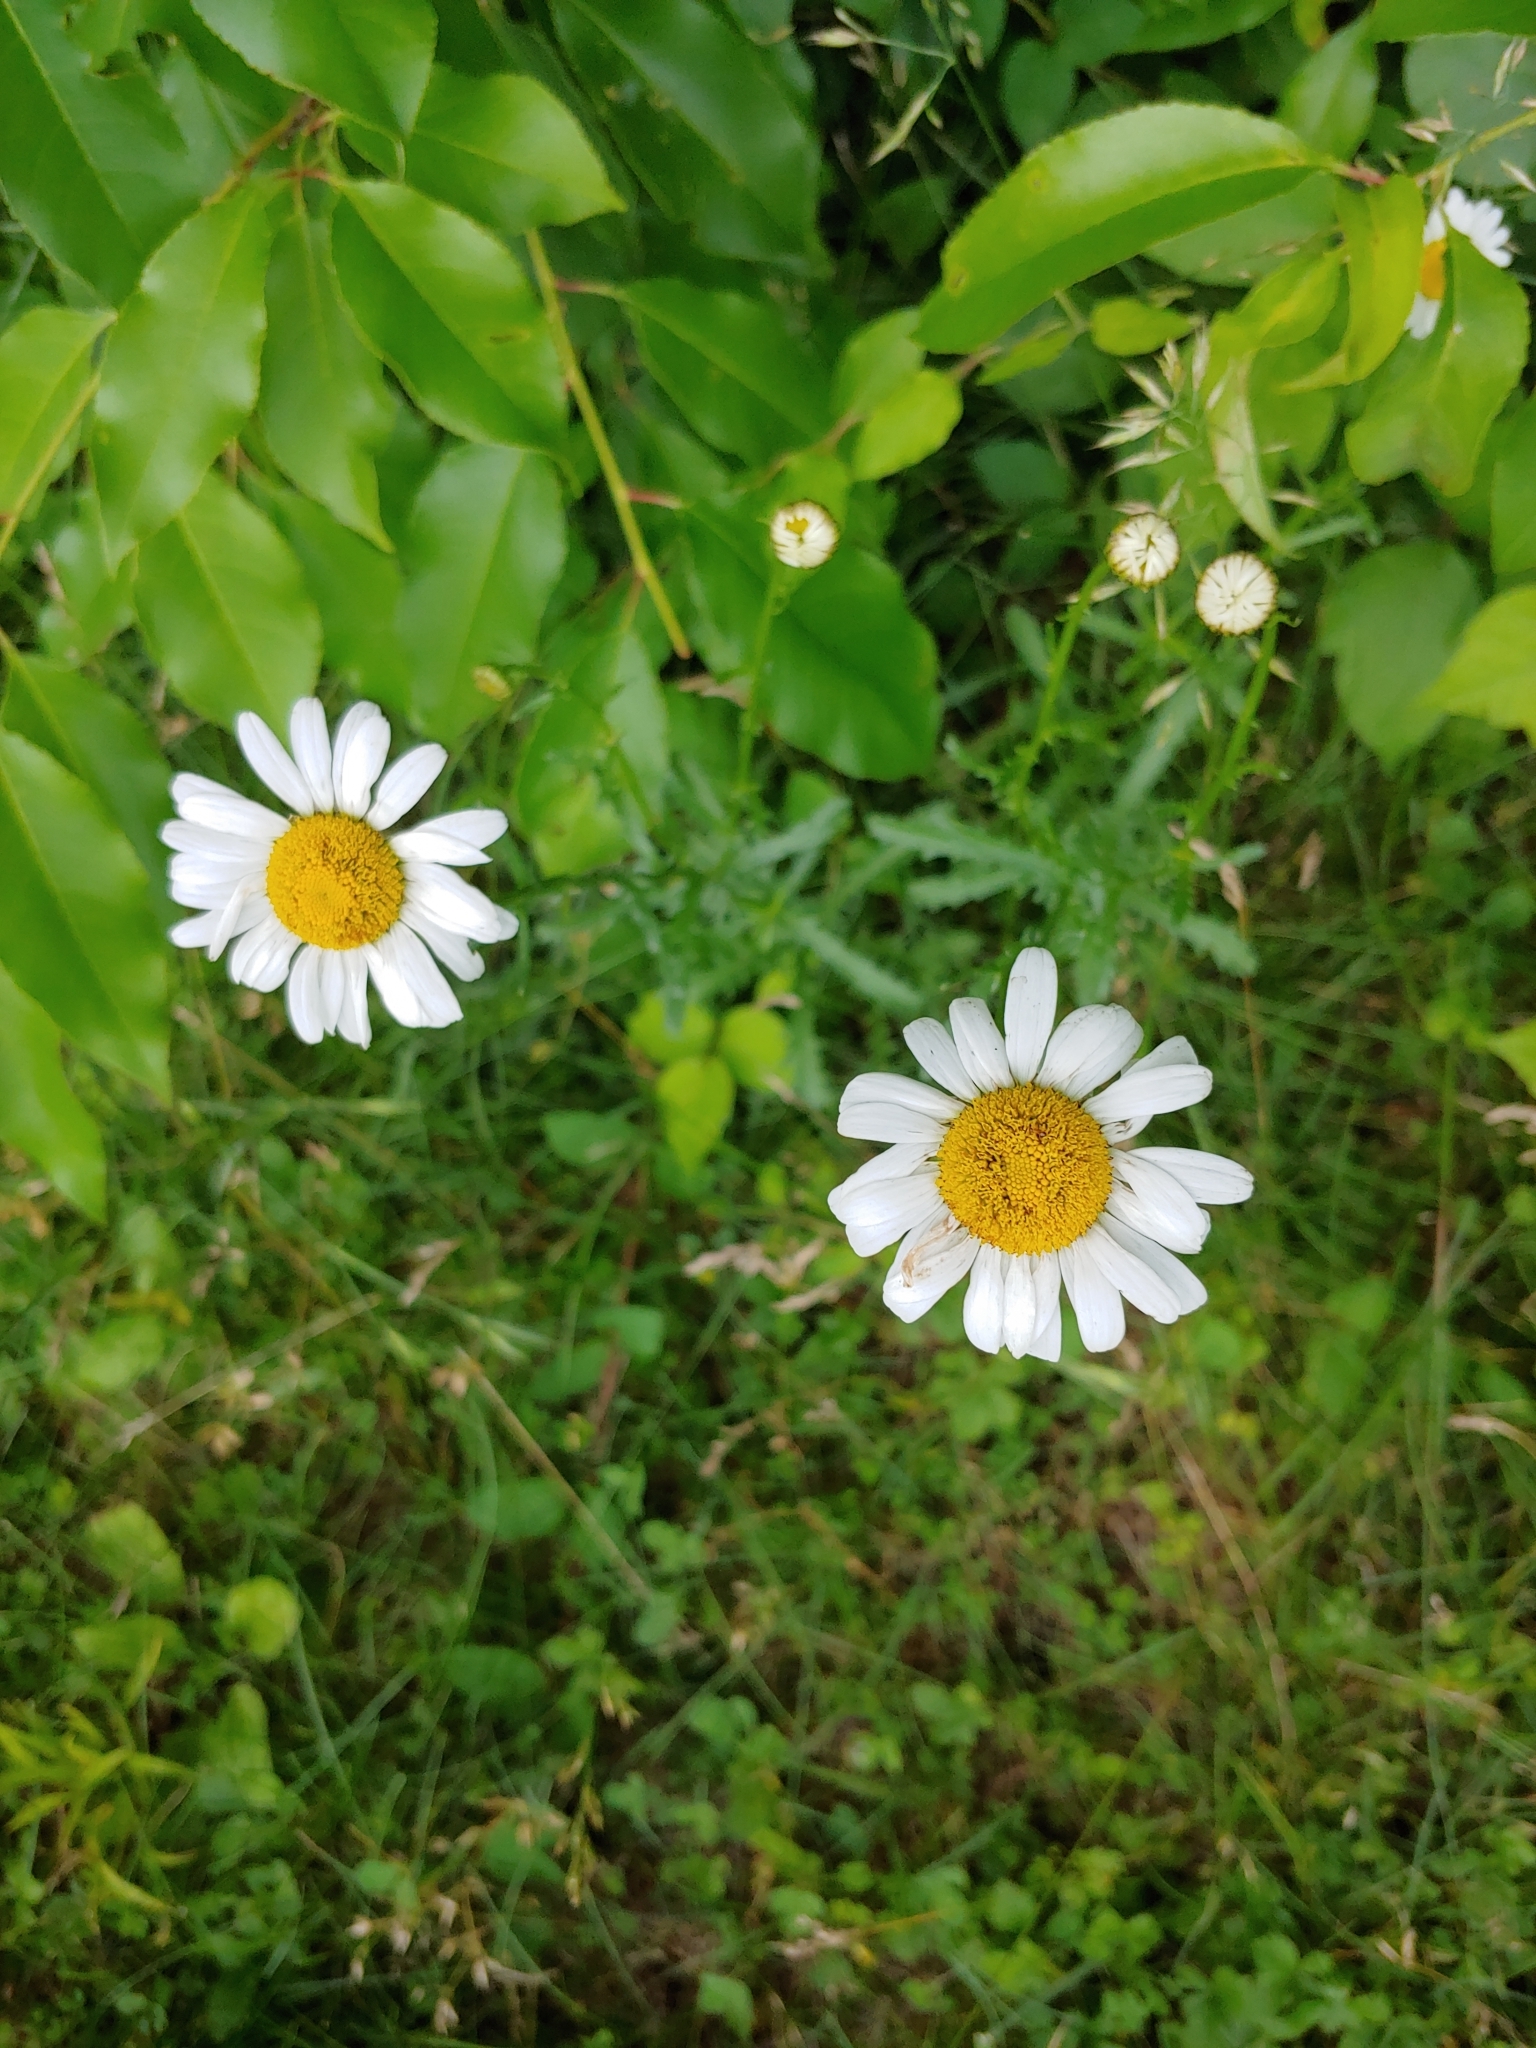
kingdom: Plantae
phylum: Tracheophyta
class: Magnoliopsida
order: Asterales
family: Asteraceae
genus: Leucanthemum
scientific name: Leucanthemum vulgare
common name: Oxeye daisy
